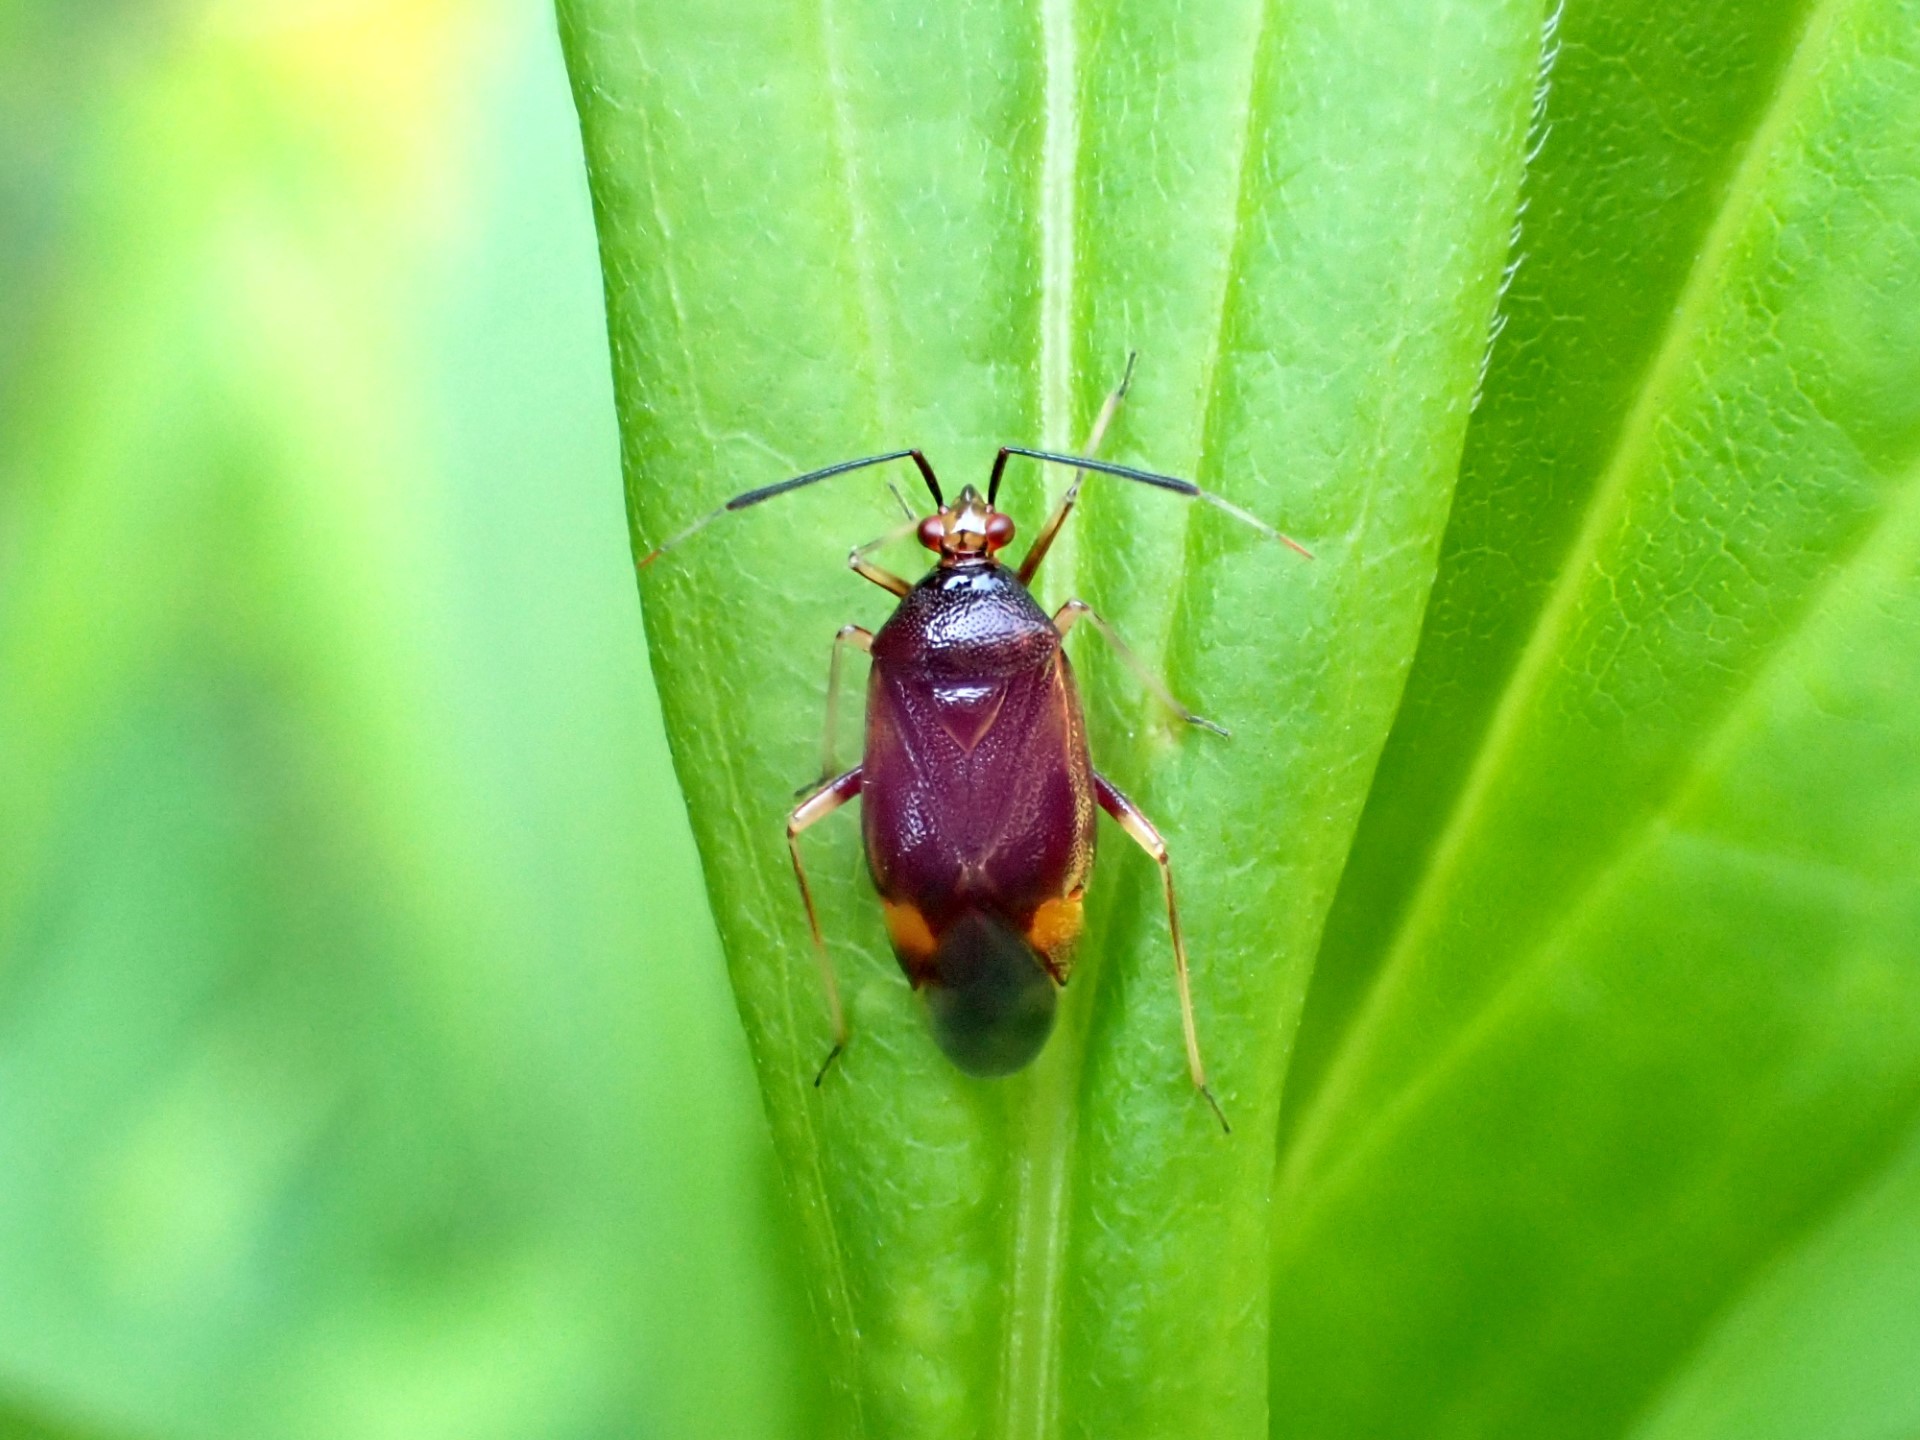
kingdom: Animalia
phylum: Arthropoda
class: Insecta
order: Hemiptera
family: Miridae
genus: Deraeocoris
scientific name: Deraeocoris ruber
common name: Plant bug
